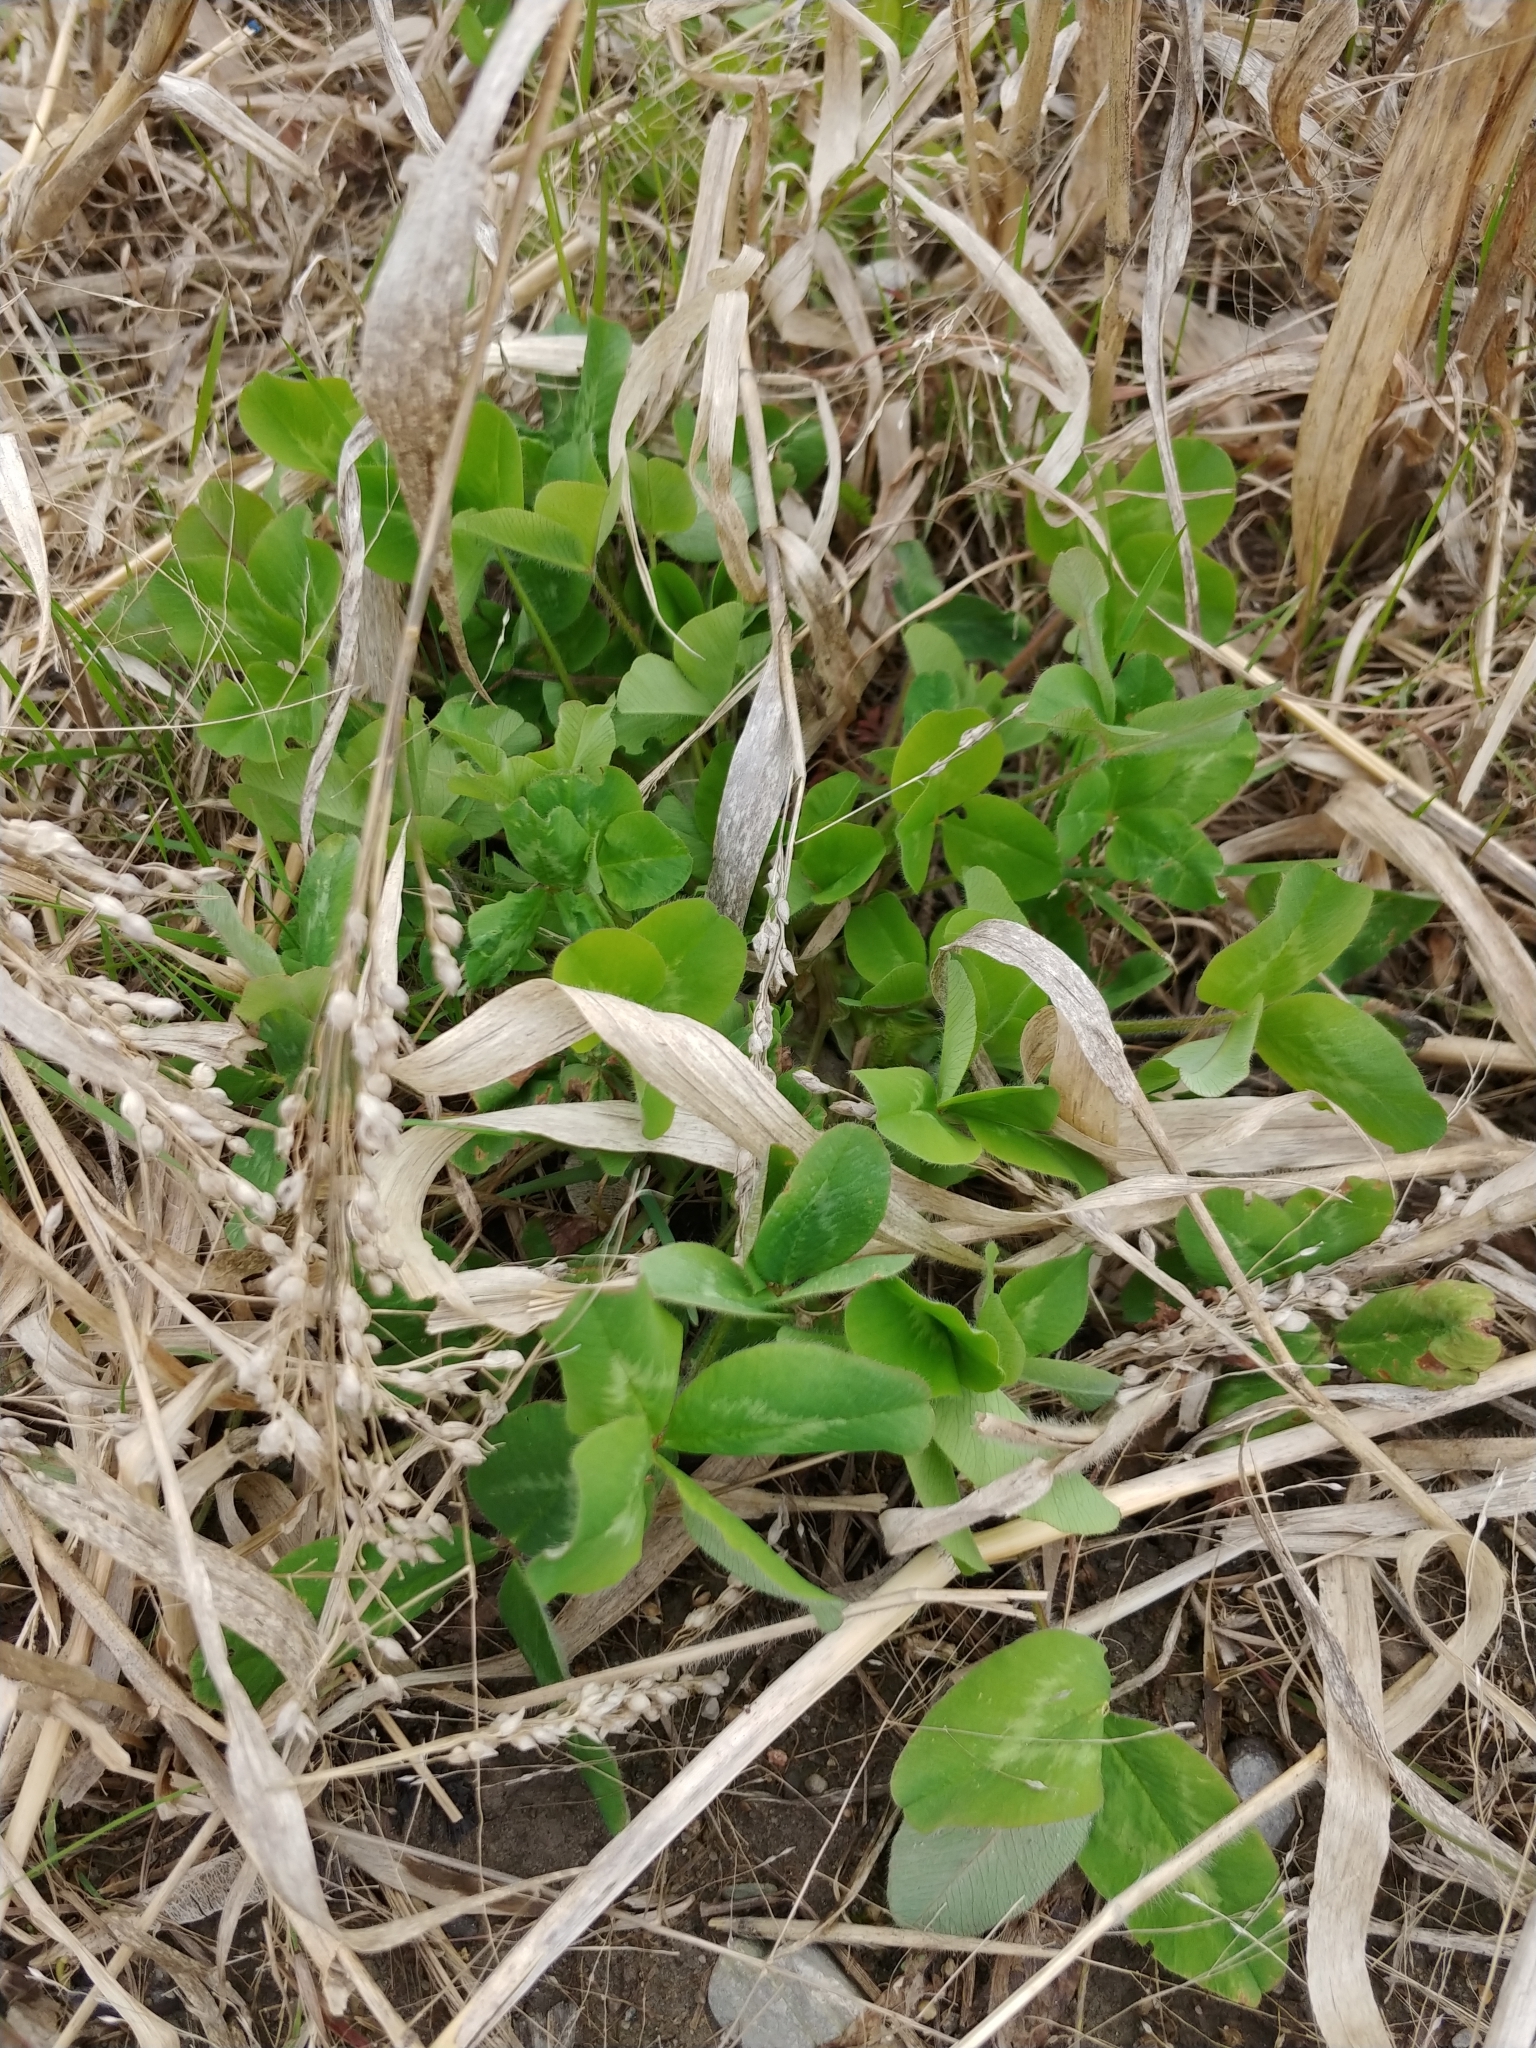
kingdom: Plantae
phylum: Tracheophyta
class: Magnoliopsida
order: Fabales
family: Fabaceae
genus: Trifolium
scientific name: Trifolium pratense
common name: Red clover
